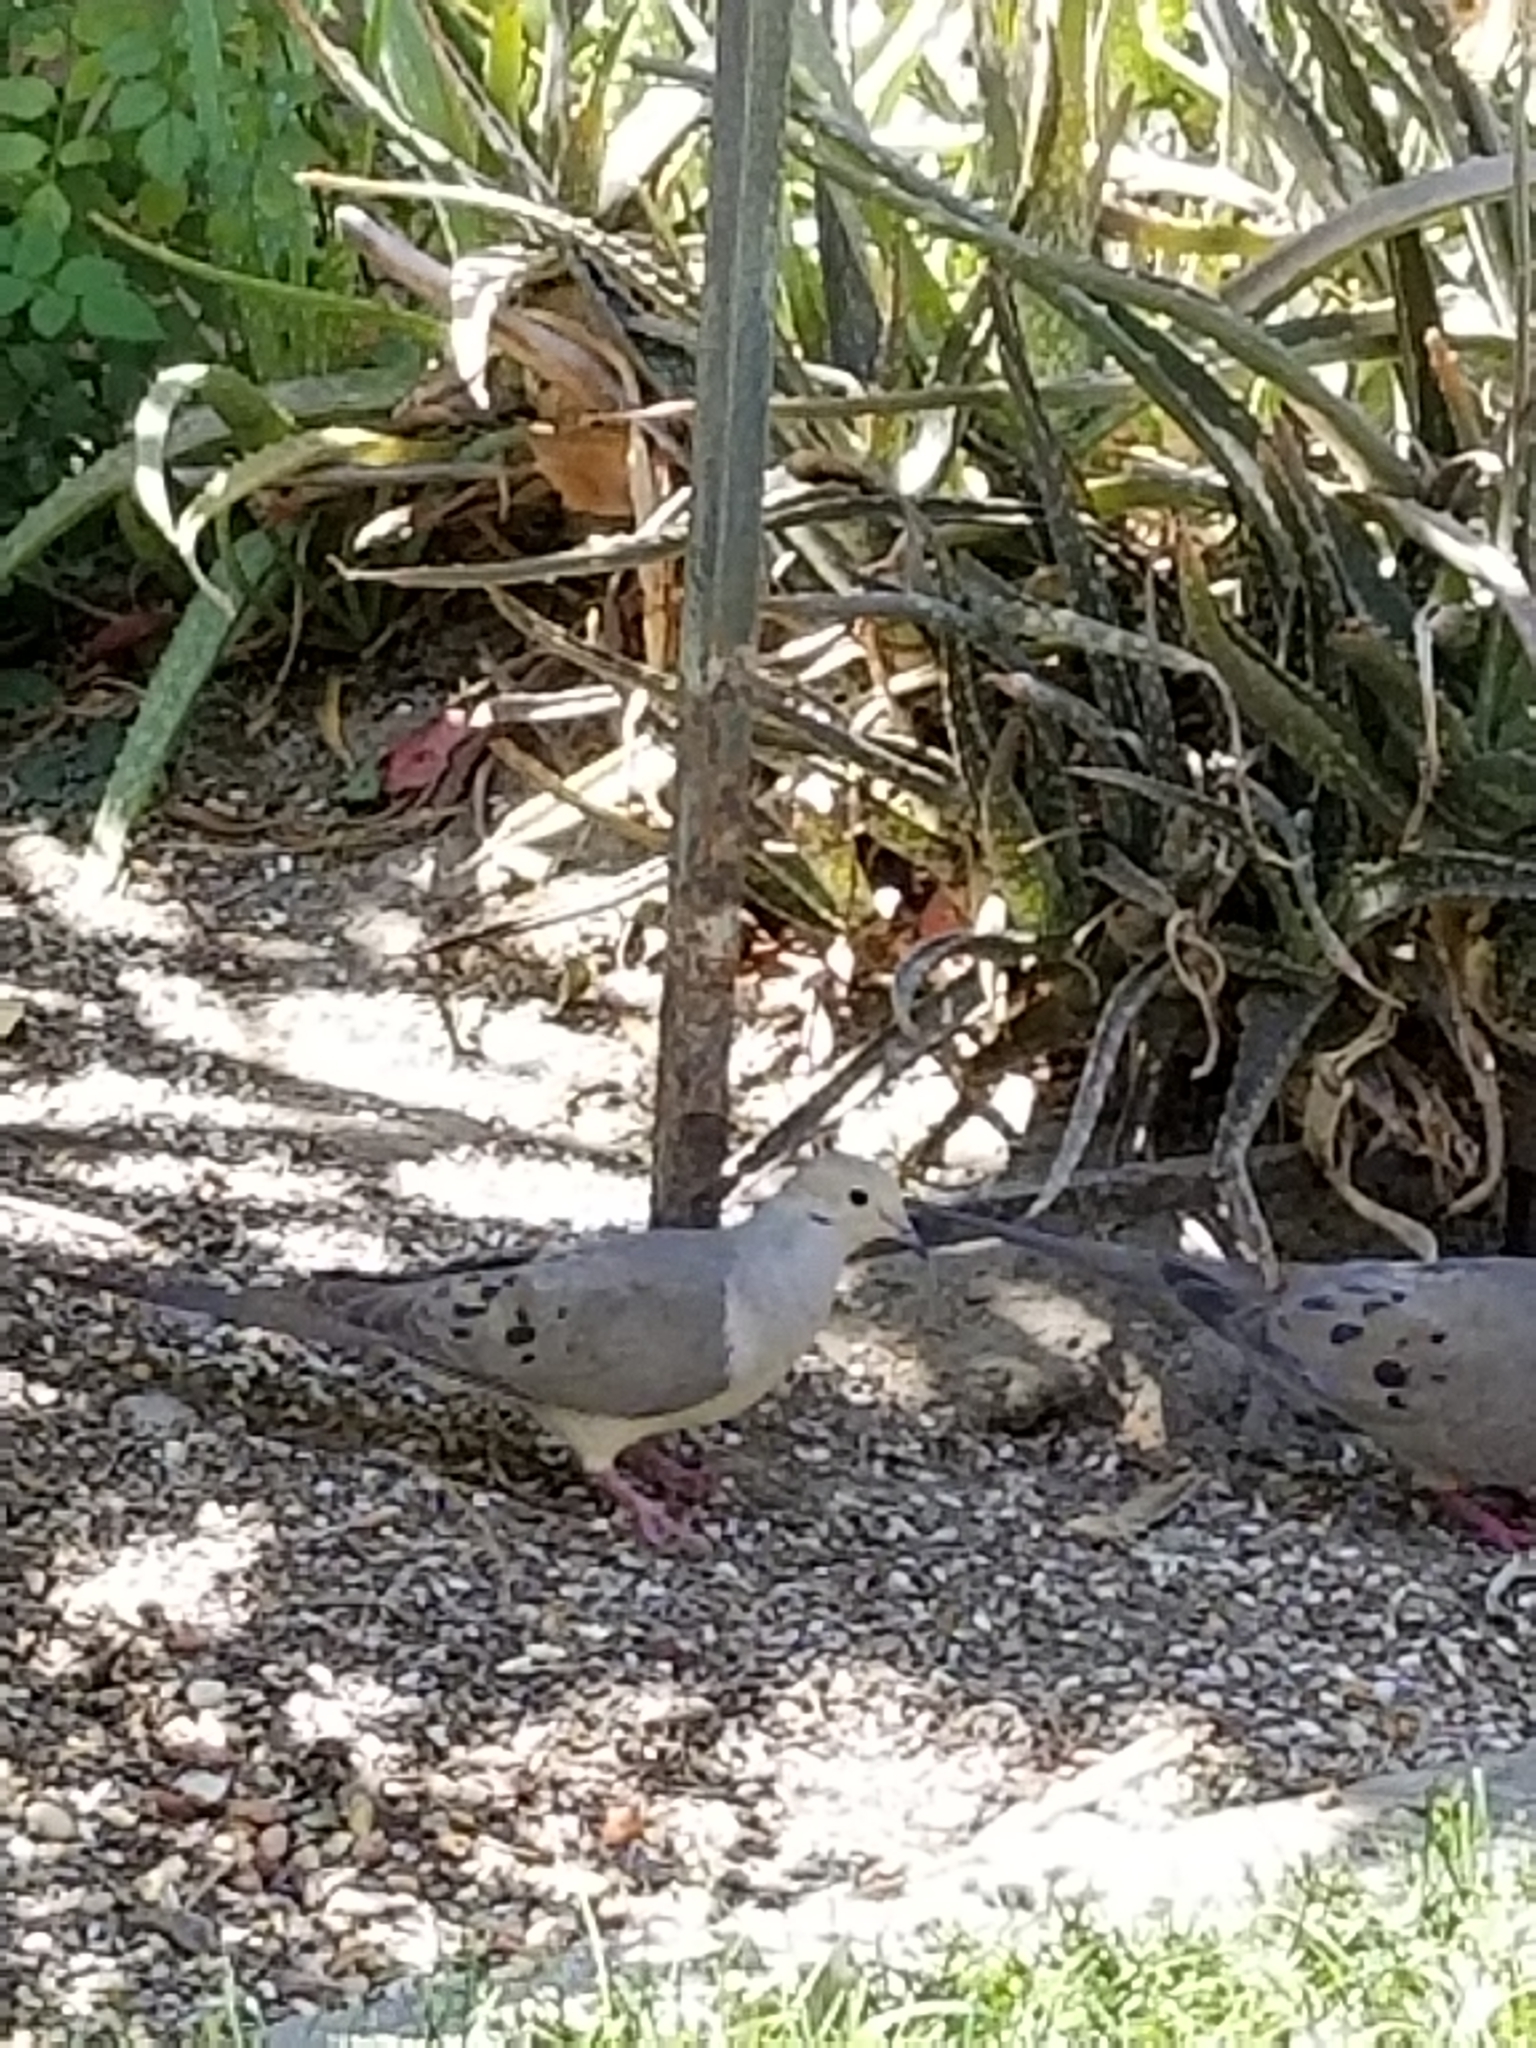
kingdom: Animalia
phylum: Chordata
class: Aves
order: Columbiformes
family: Columbidae
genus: Zenaida
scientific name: Zenaida macroura
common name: Mourning dove
